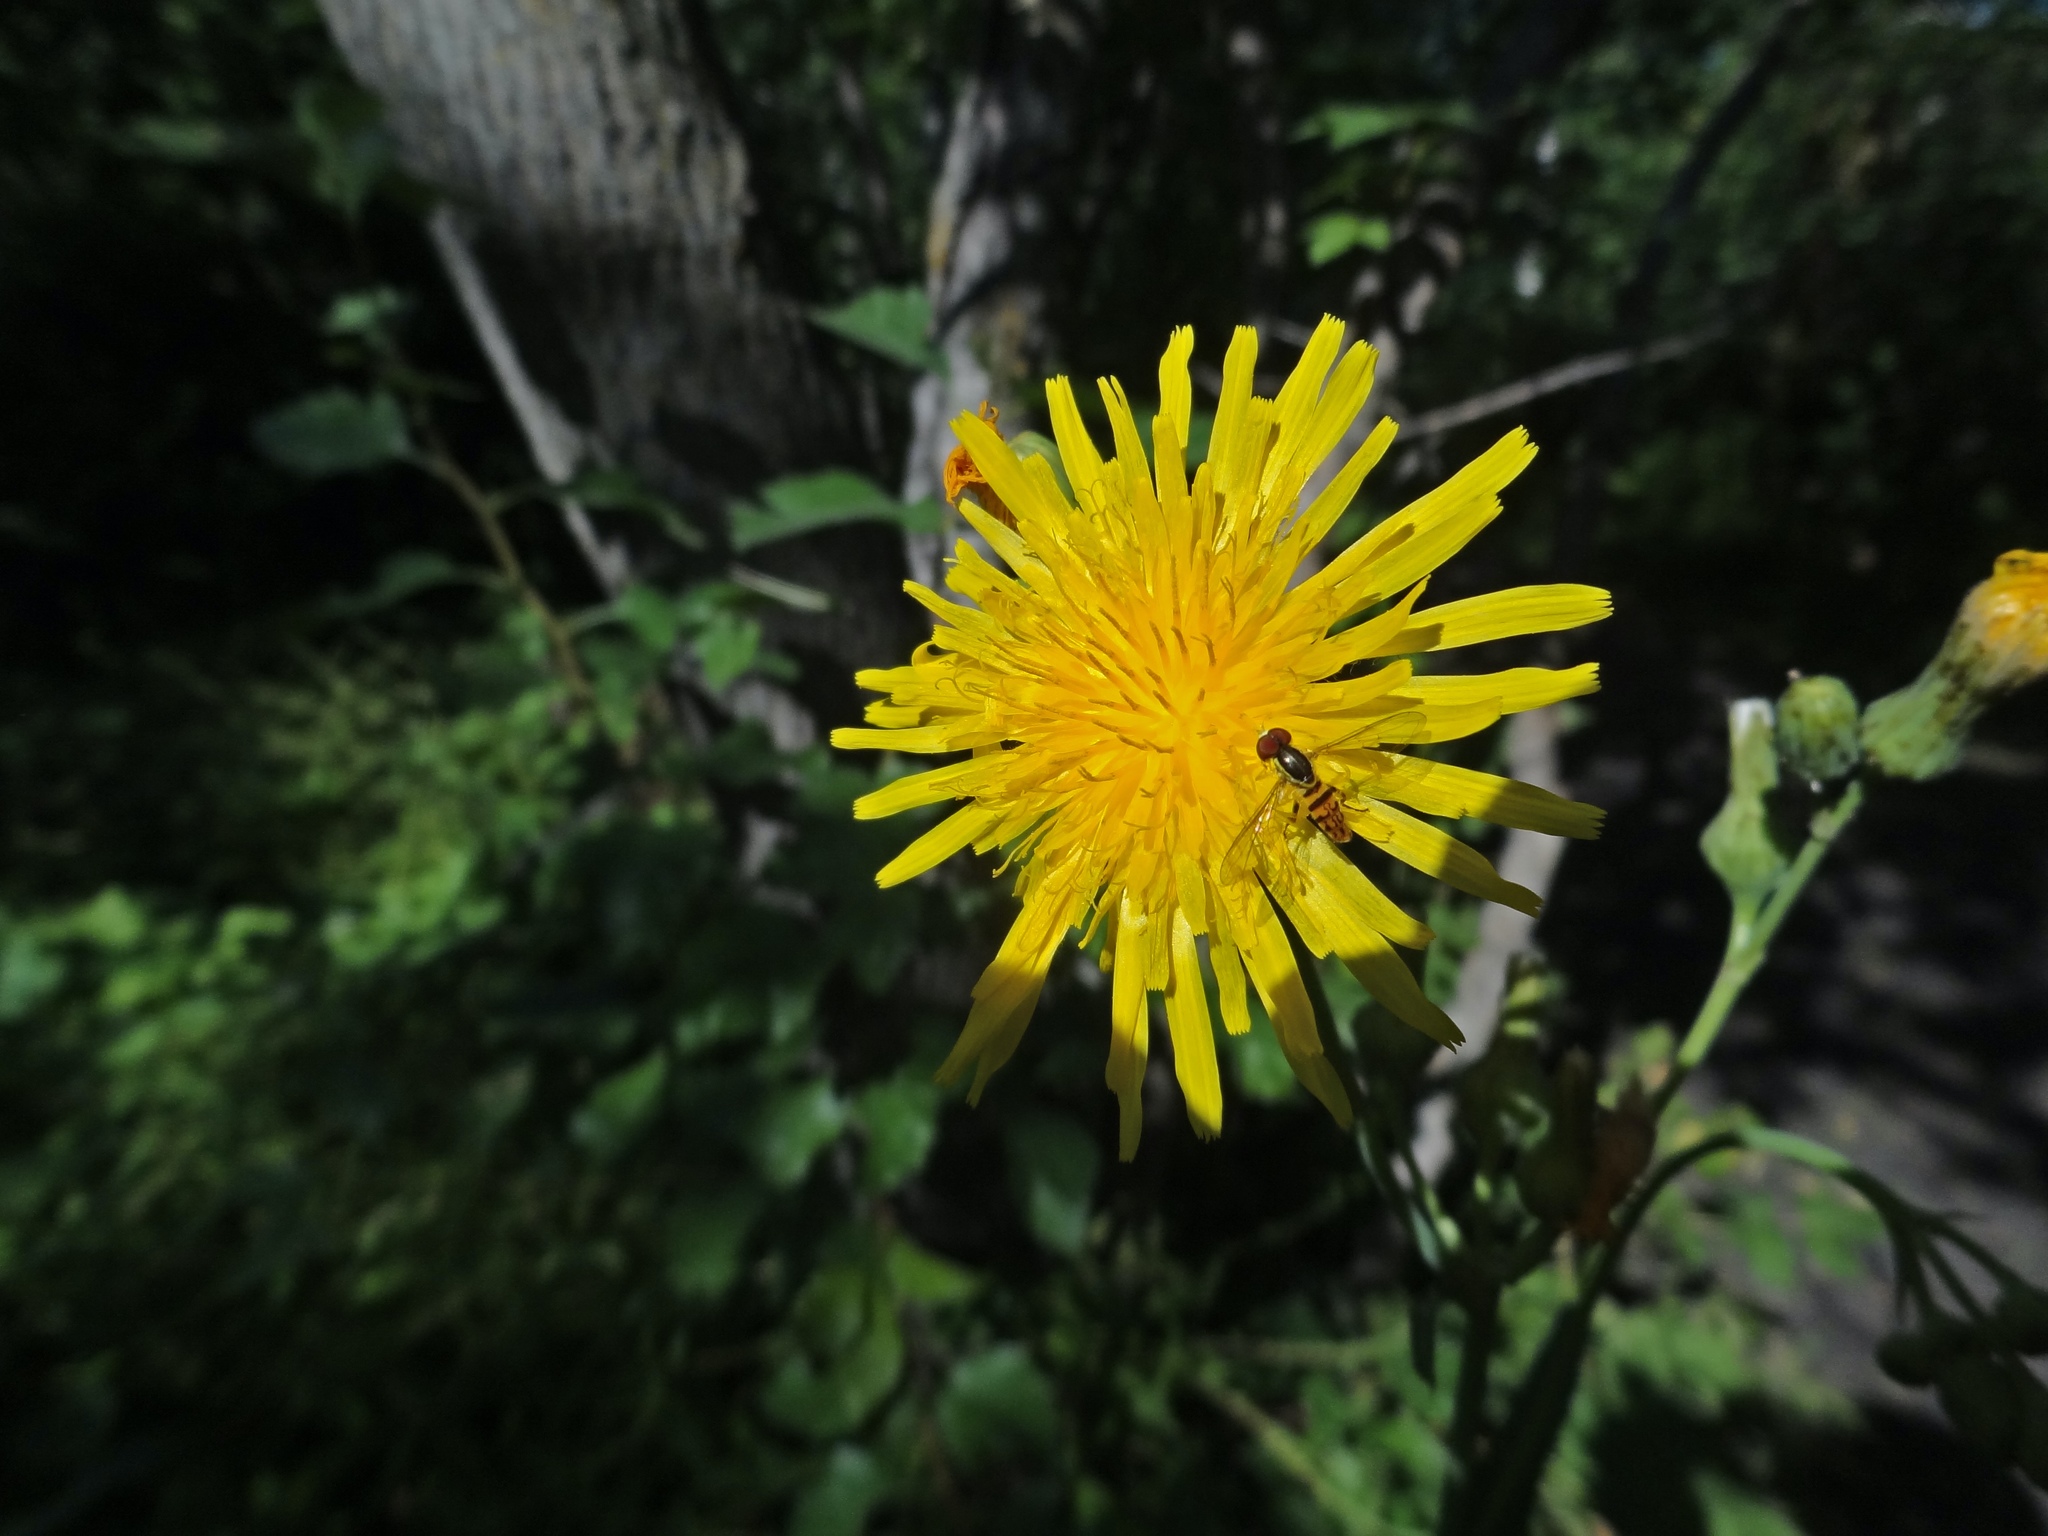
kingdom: Plantae
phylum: Tracheophyta
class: Magnoliopsida
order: Asterales
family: Asteraceae
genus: Sonchus
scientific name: Sonchus arvensis
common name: Perennial sow-thistle
